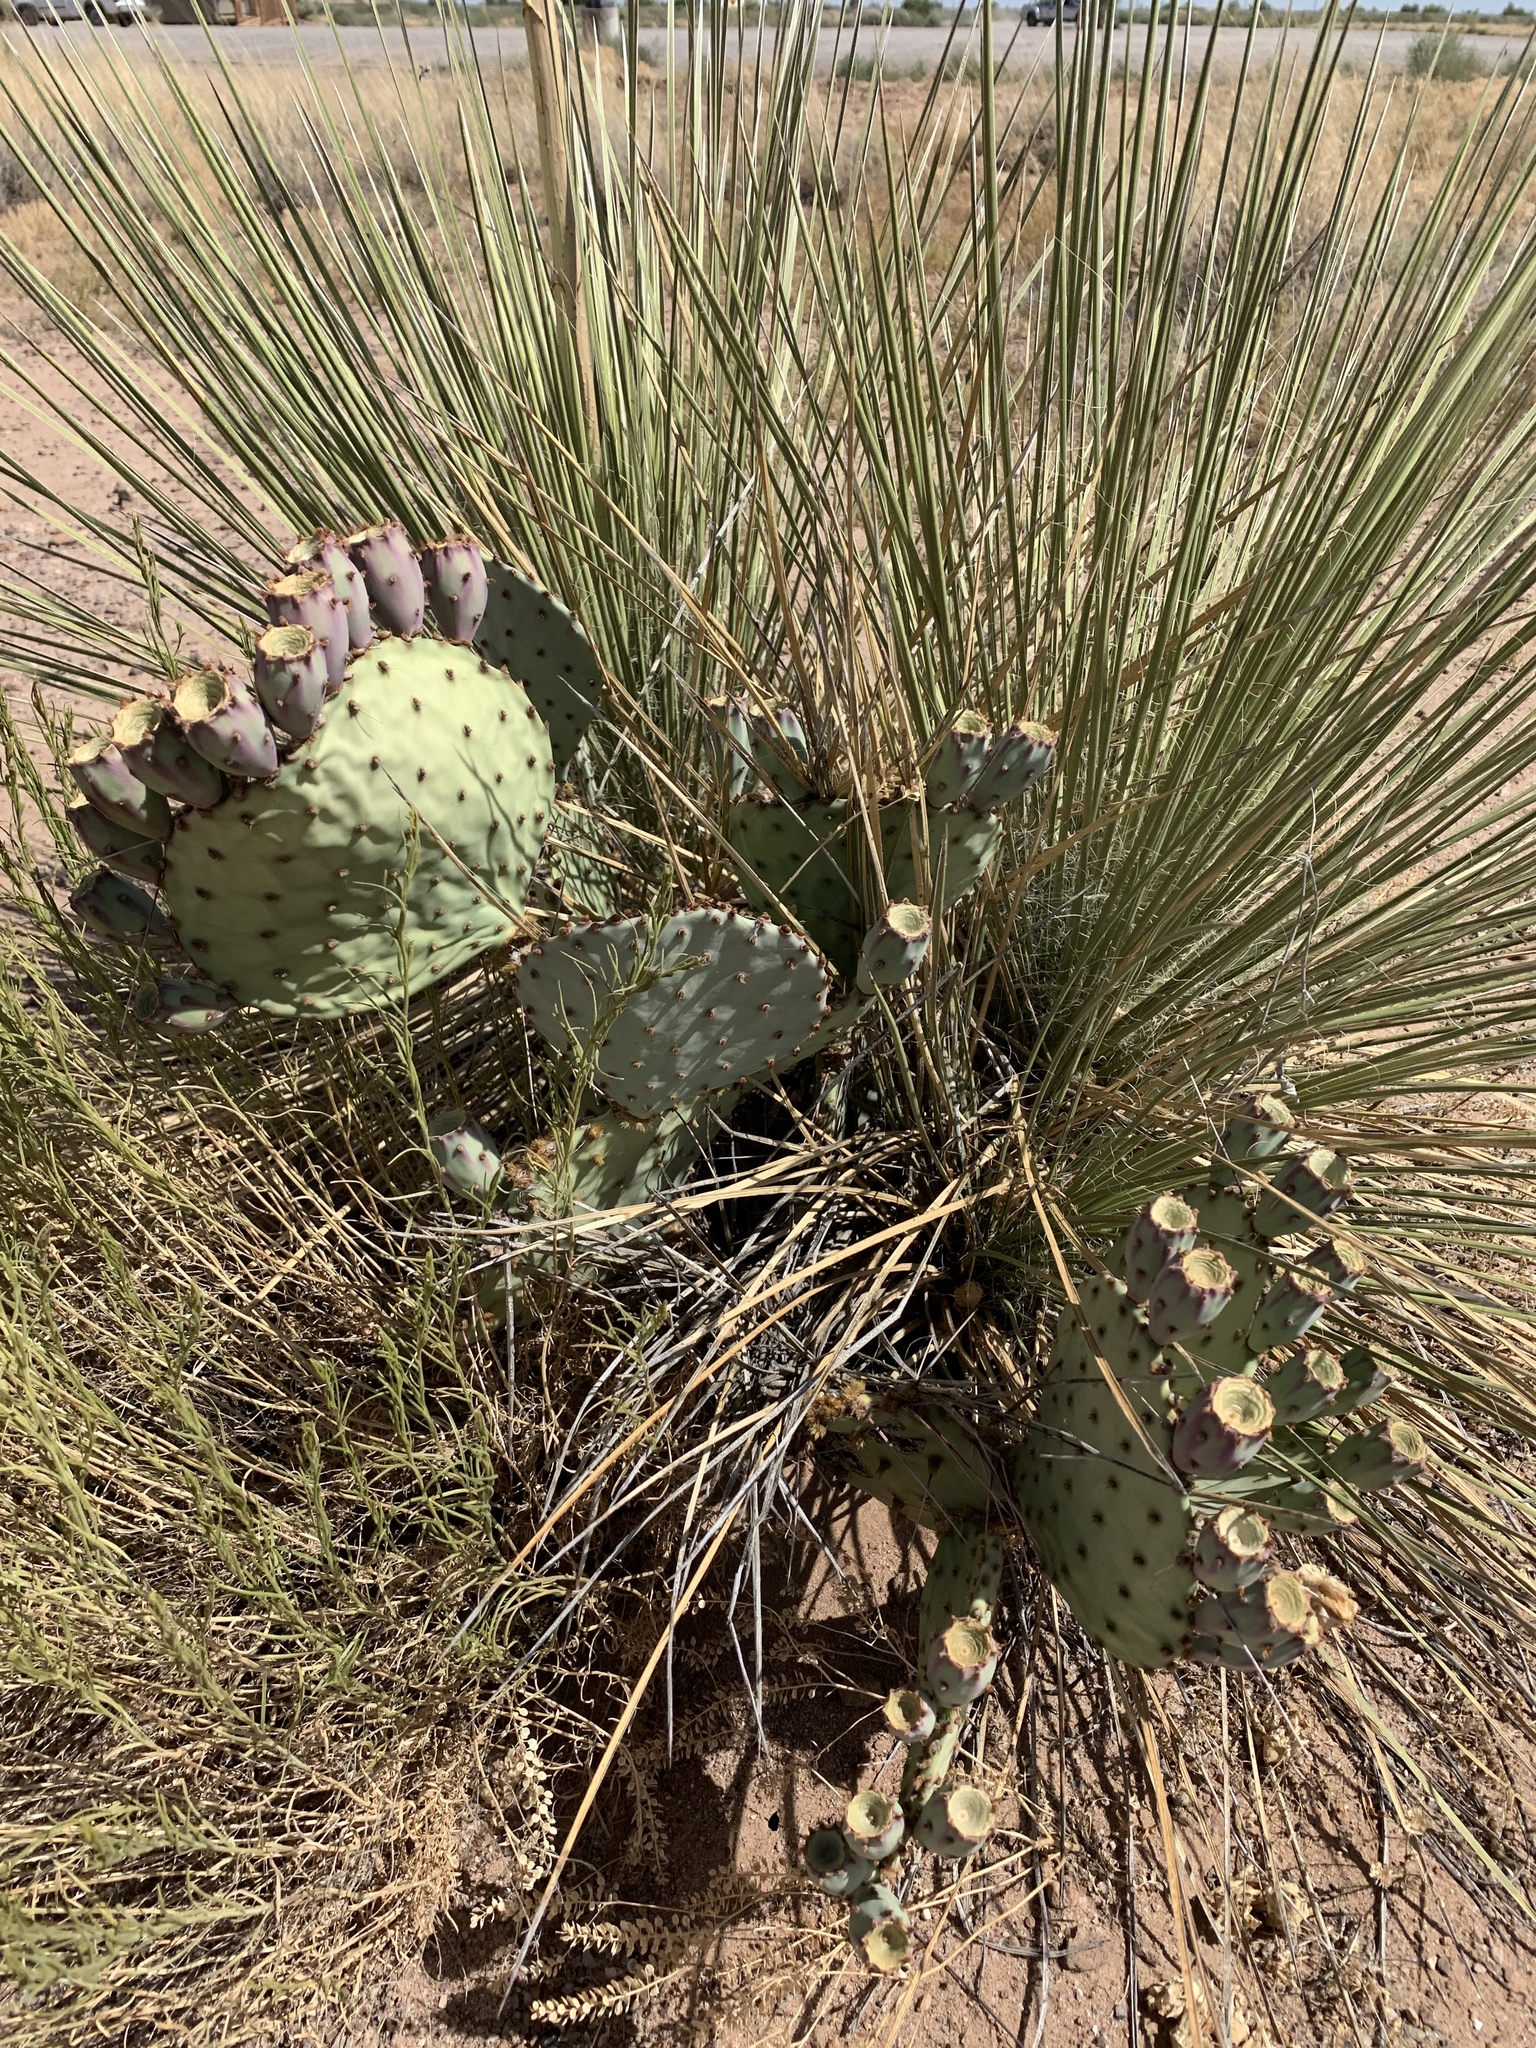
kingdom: Plantae
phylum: Tracheophyta
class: Liliopsida
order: Asparagales
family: Asparagaceae
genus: Yucca
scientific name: Yucca elata
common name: Palmella
